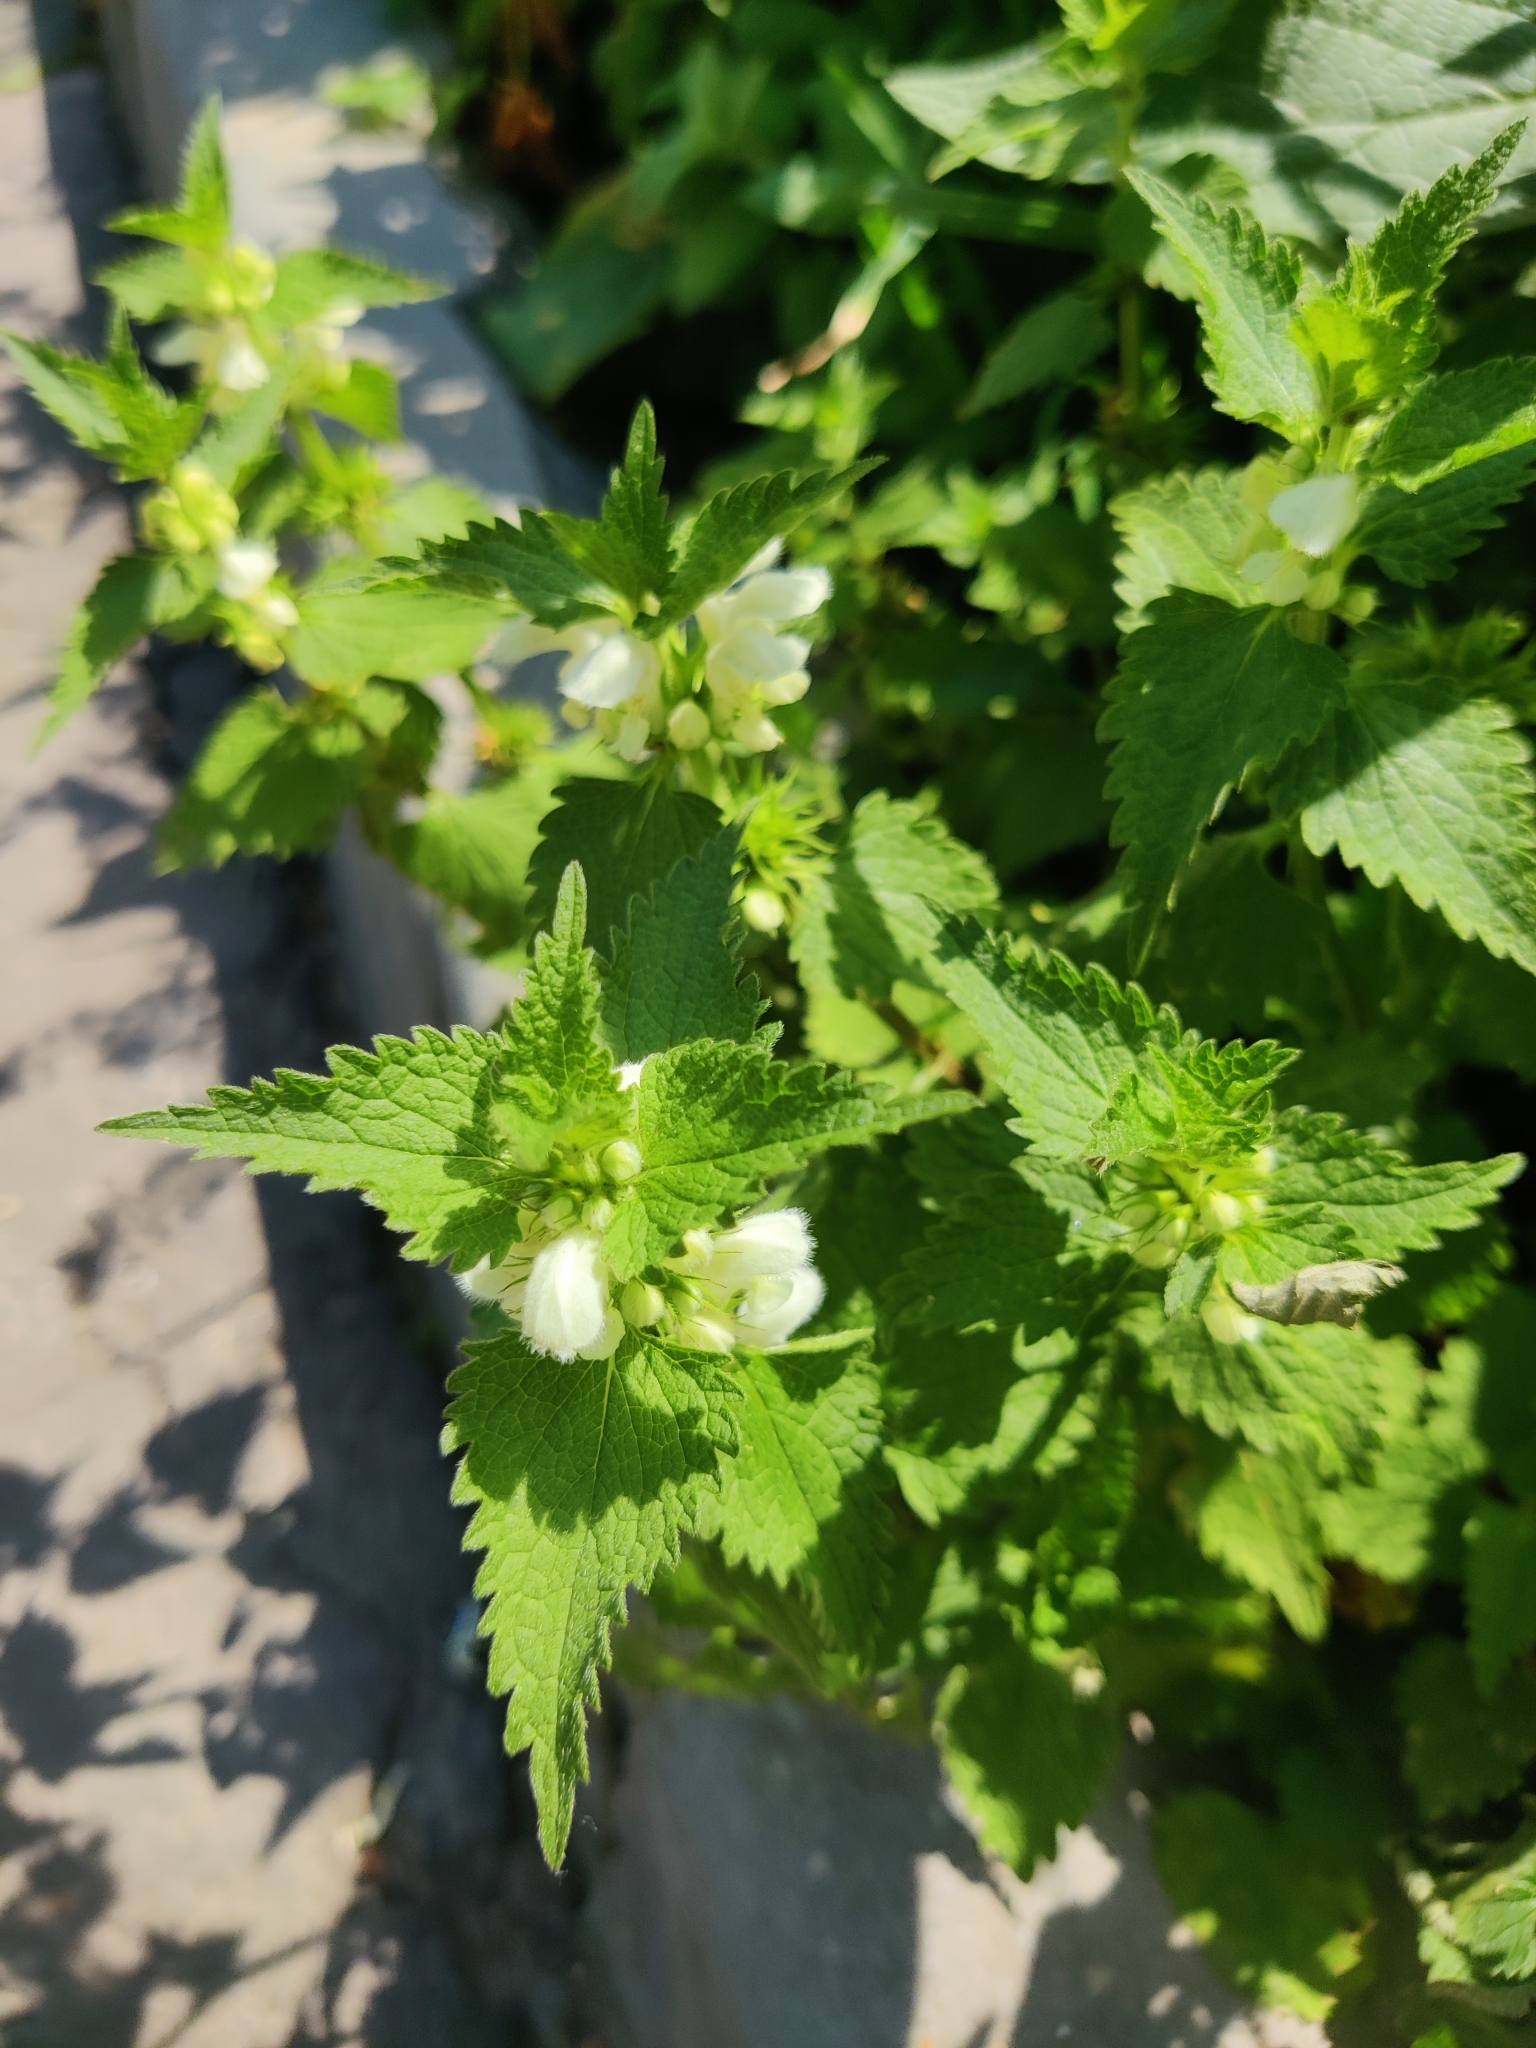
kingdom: Plantae
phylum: Tracheophyta
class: Magnoliopsida
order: Lamiales
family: Lamiaceae
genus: Lamium
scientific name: Lamium album
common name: White dead-nettle
